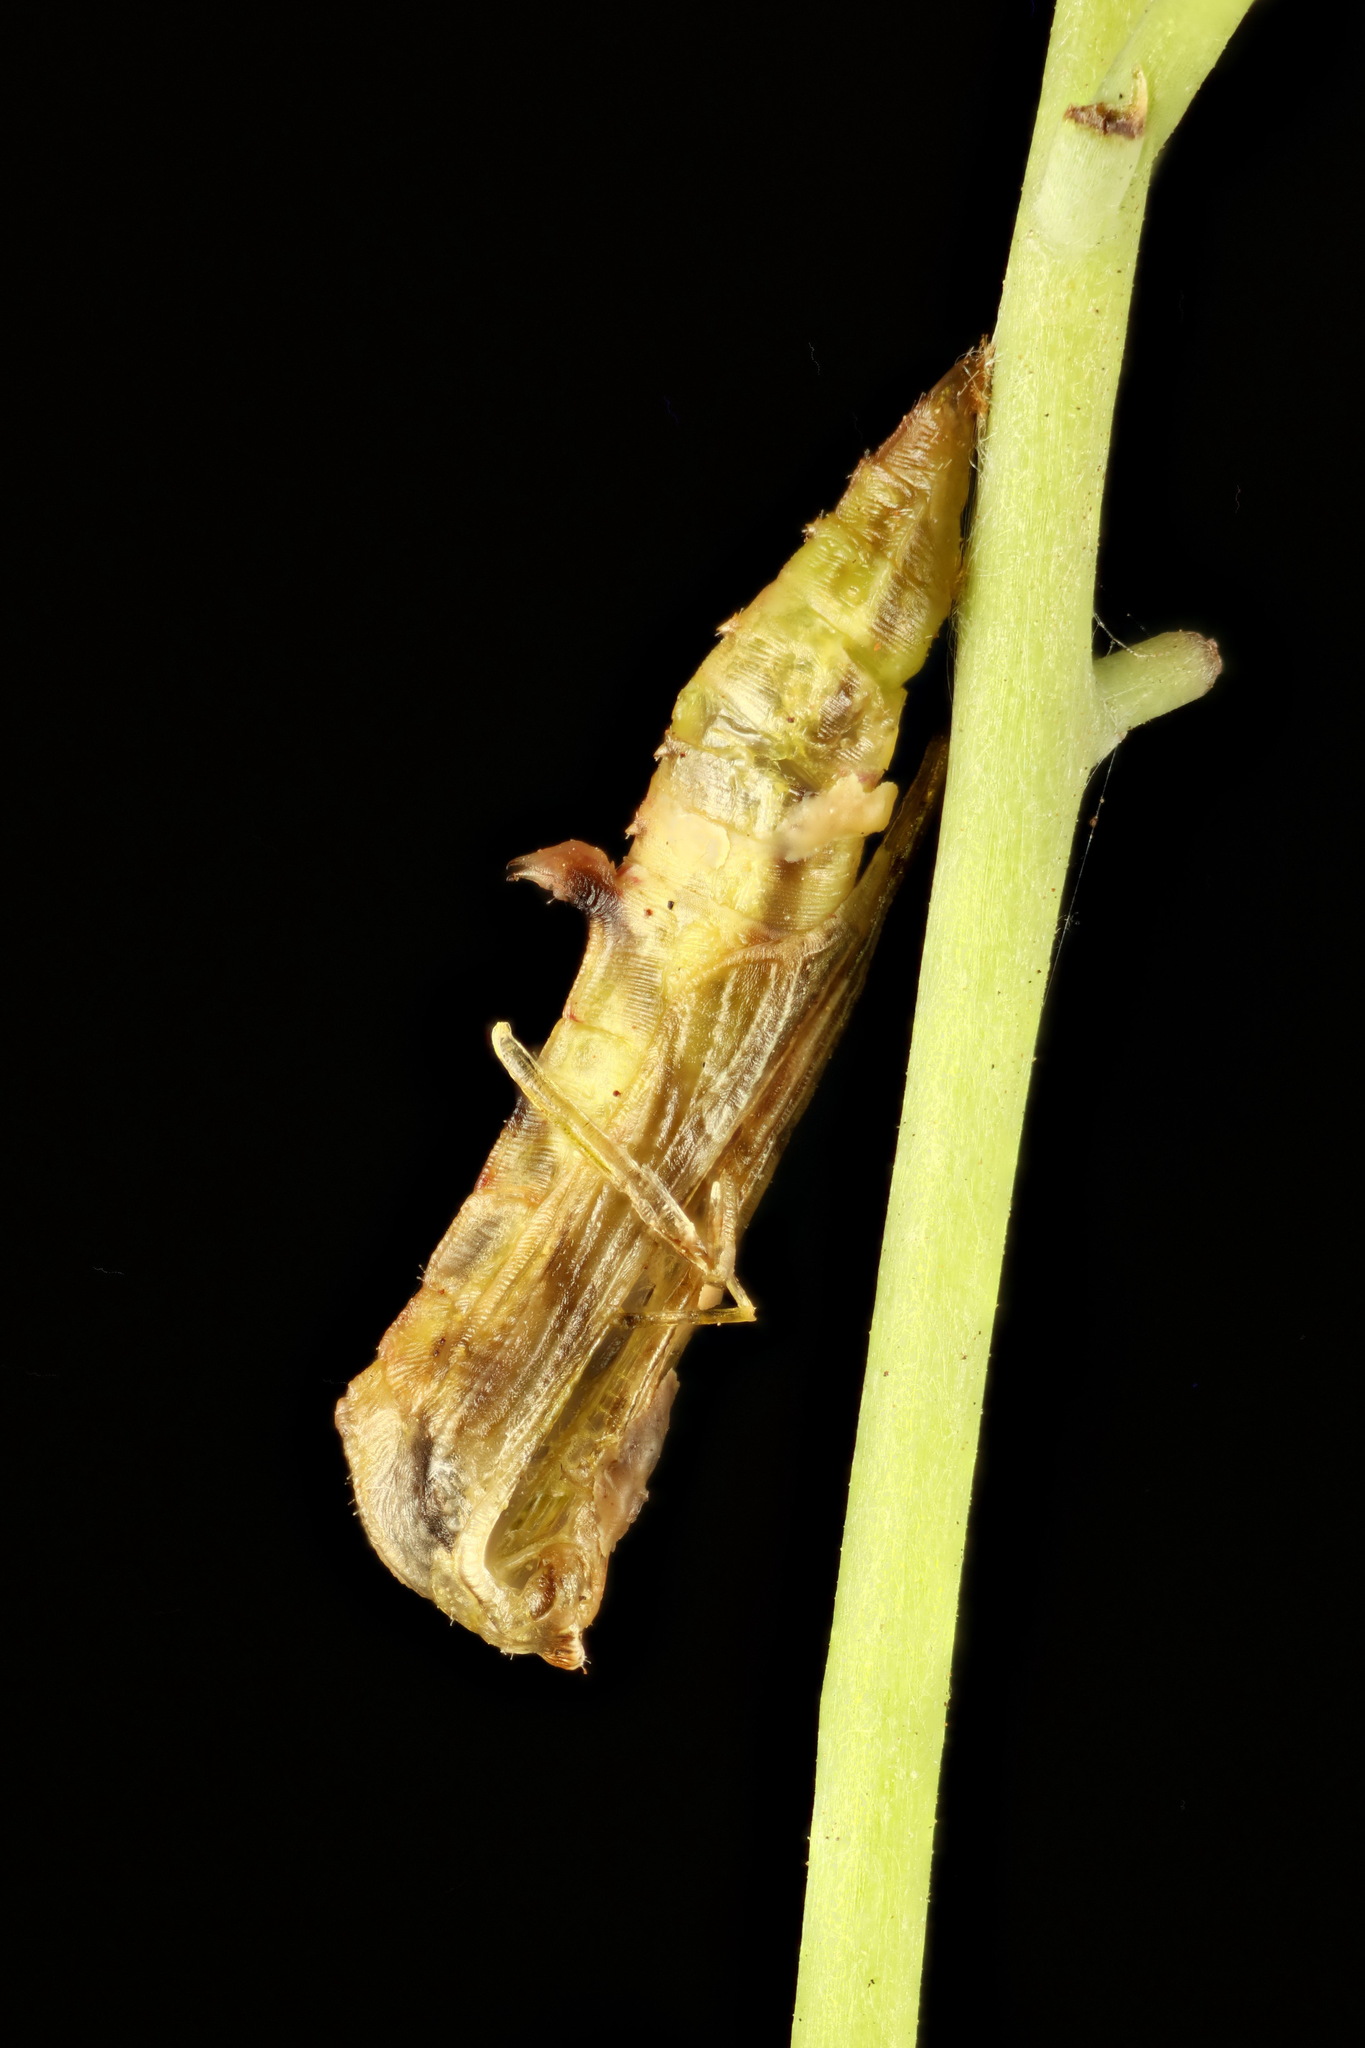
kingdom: Animalia
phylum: Arthropoda
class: Insecta
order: Lepidoptera
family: Pterophoridae
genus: Sinpunctiptilia
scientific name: Sinpunctiptilia emissalis
